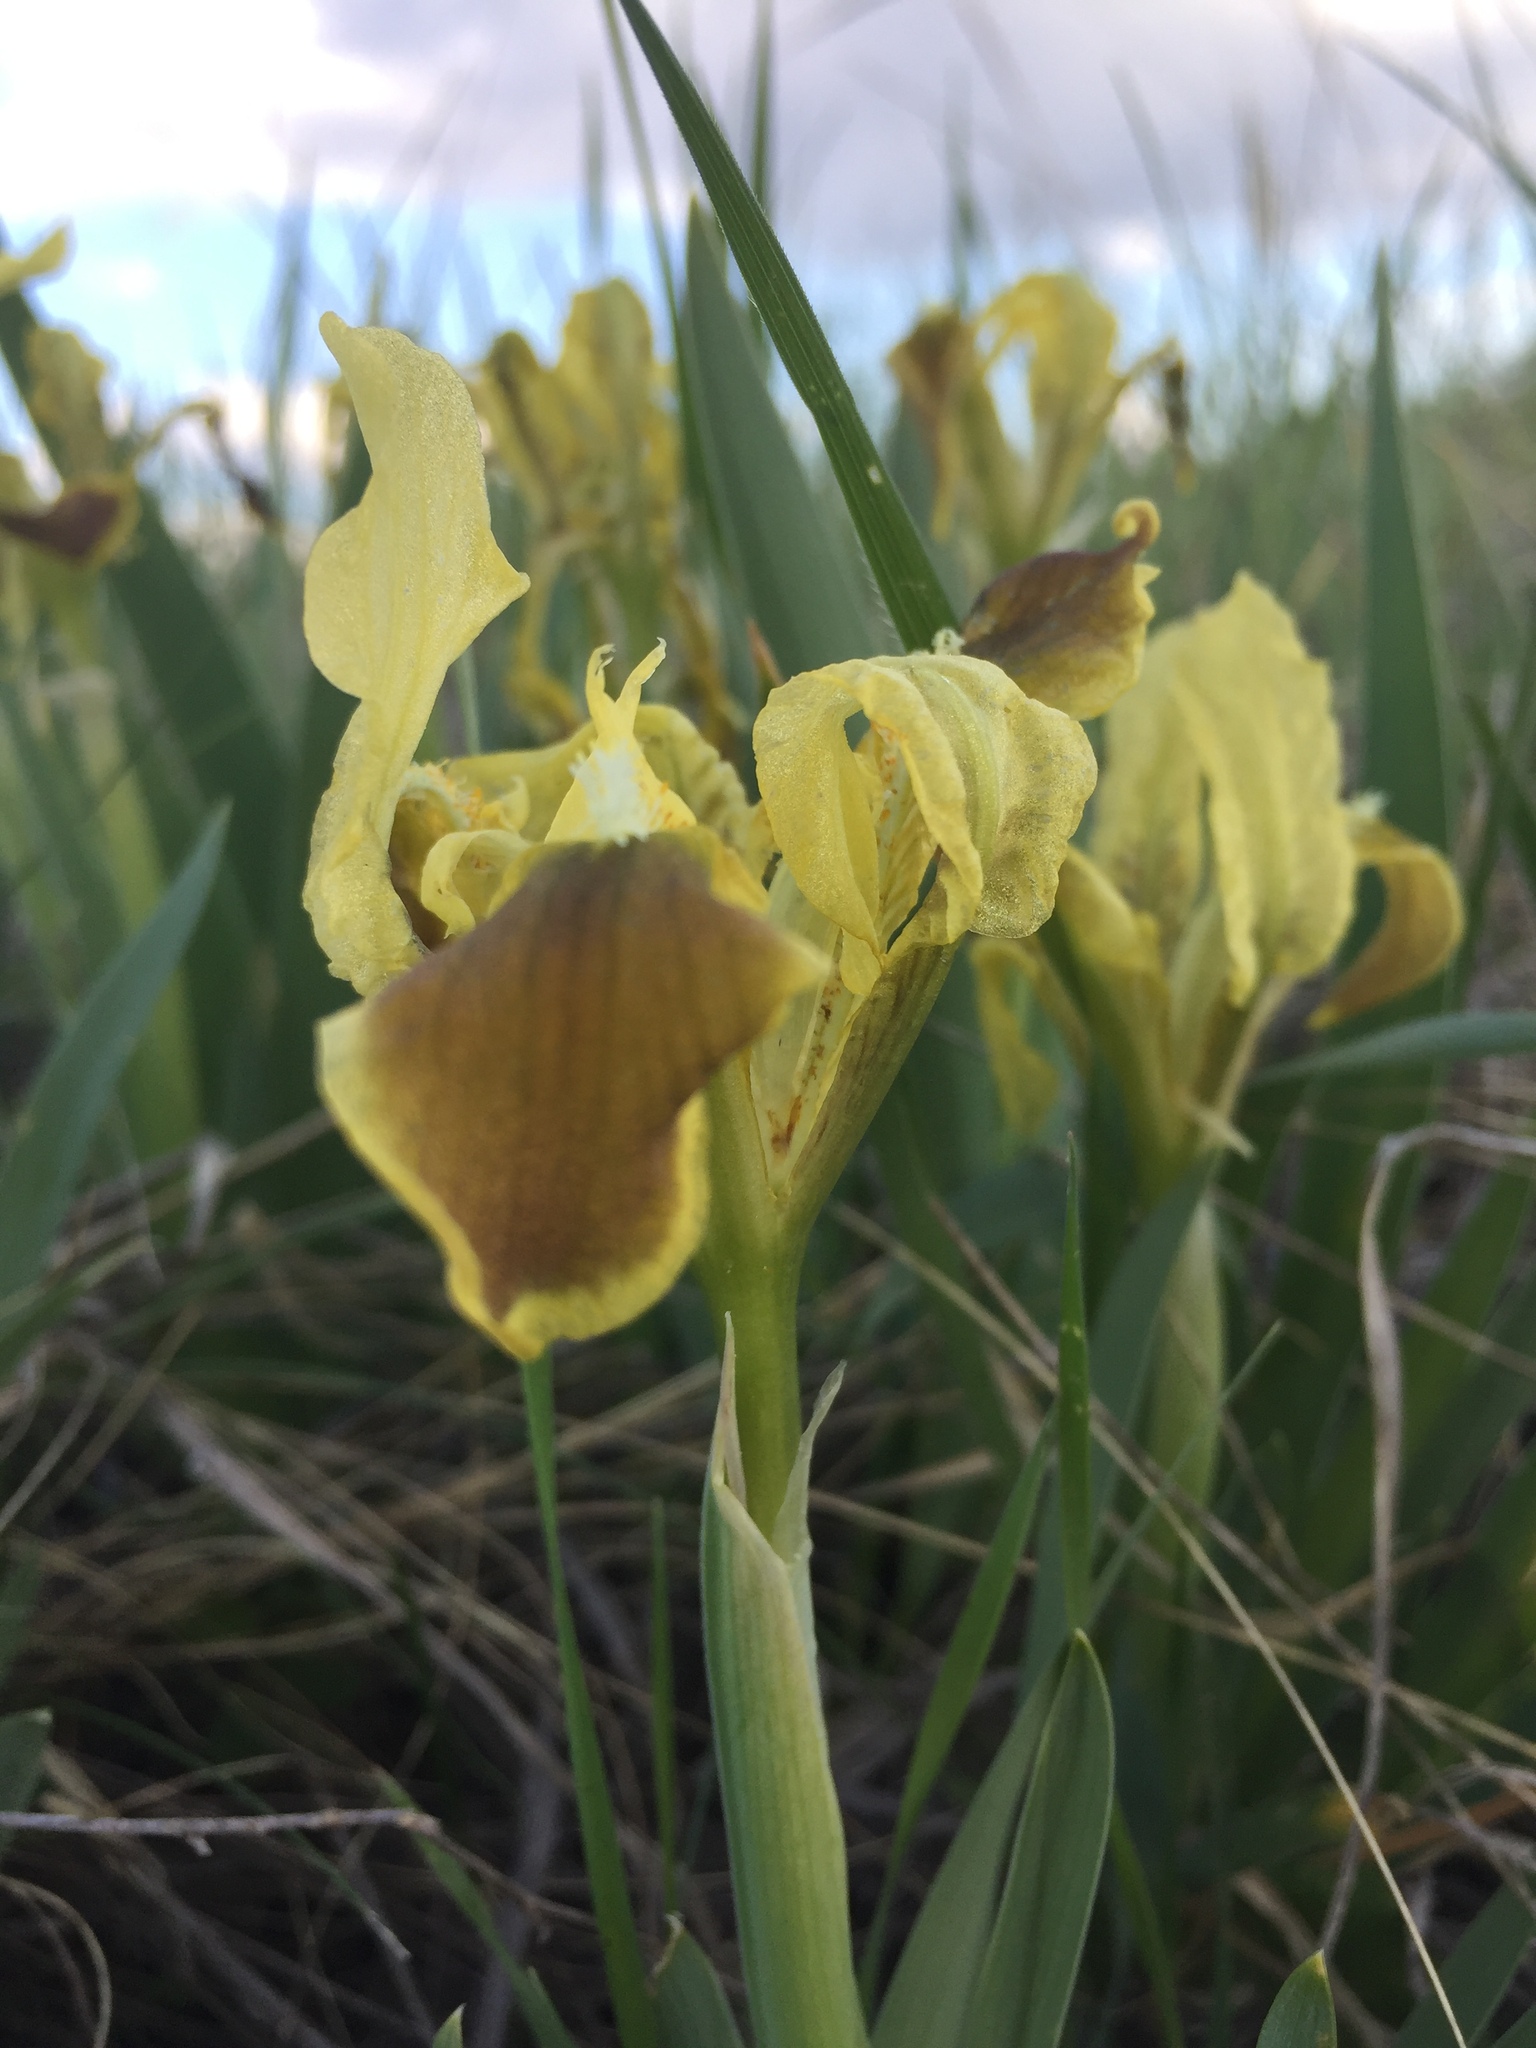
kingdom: Plantae
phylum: Tracheophyta
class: Liliopsida
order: Asparagales
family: Iridaceae
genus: Iris
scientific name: Iris pumila
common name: Dwarf iris
